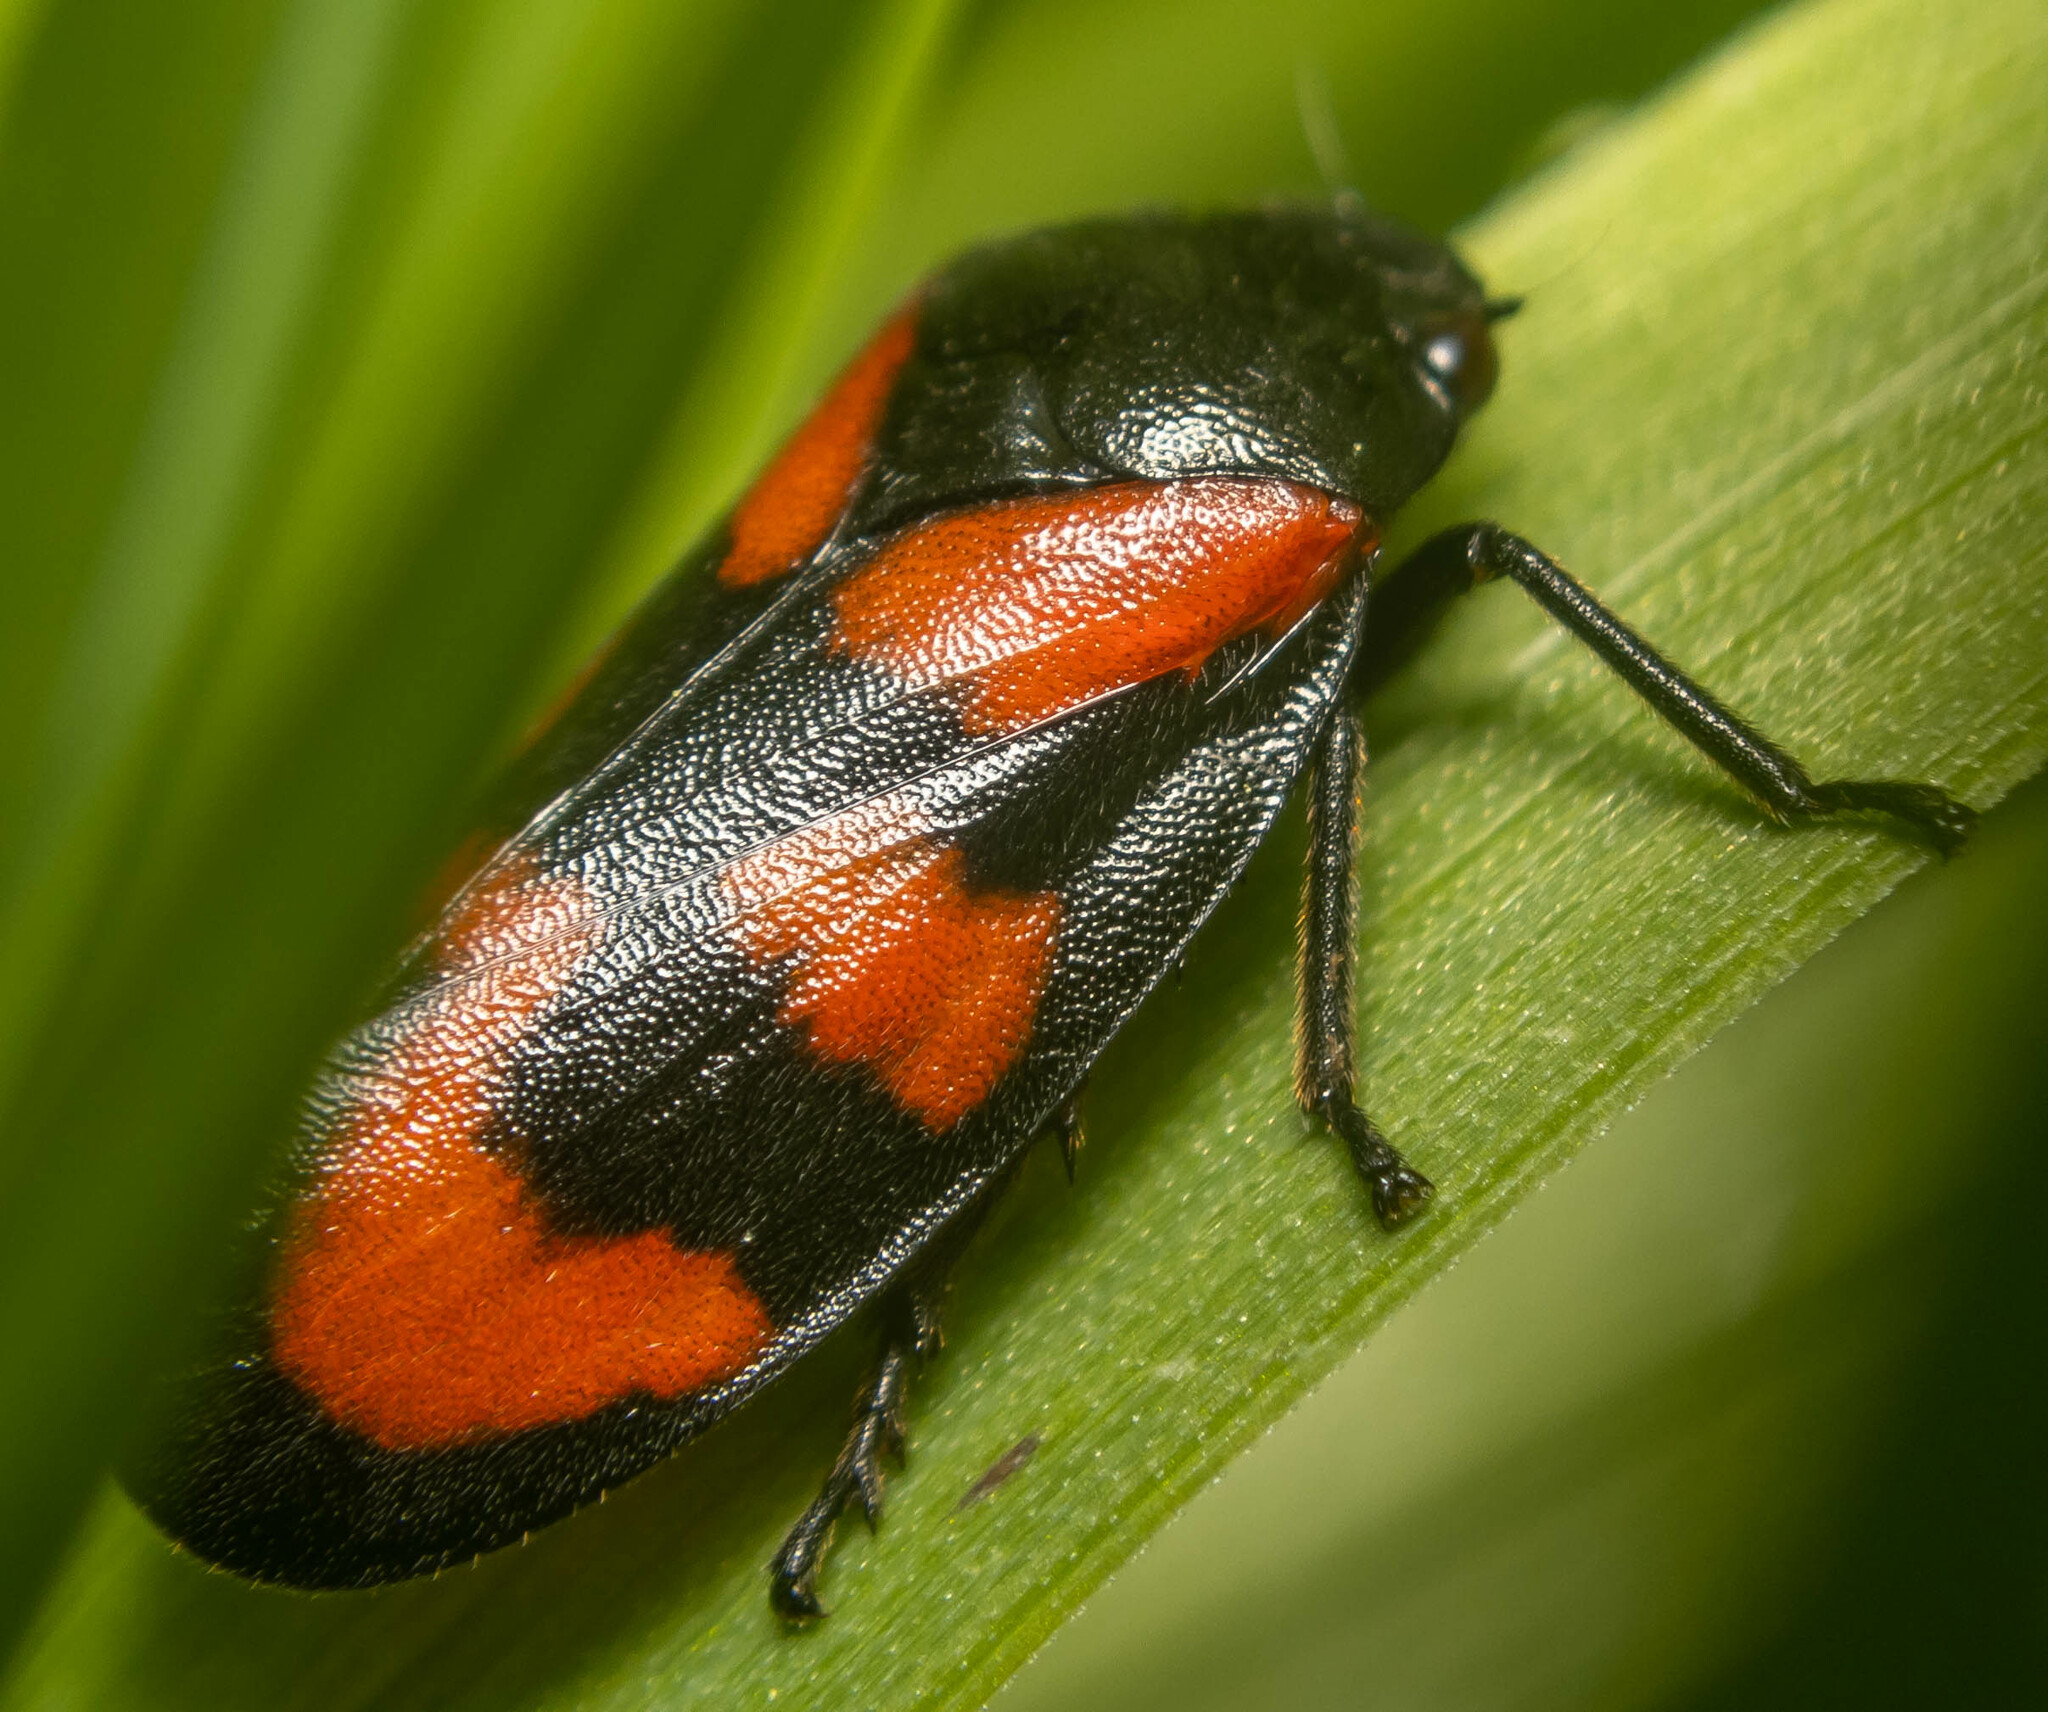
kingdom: Animalia
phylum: Arthropoda
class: Insecta
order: Hemiptera
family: Cercopidae
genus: Cercopis
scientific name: Cercopis vulnerata
